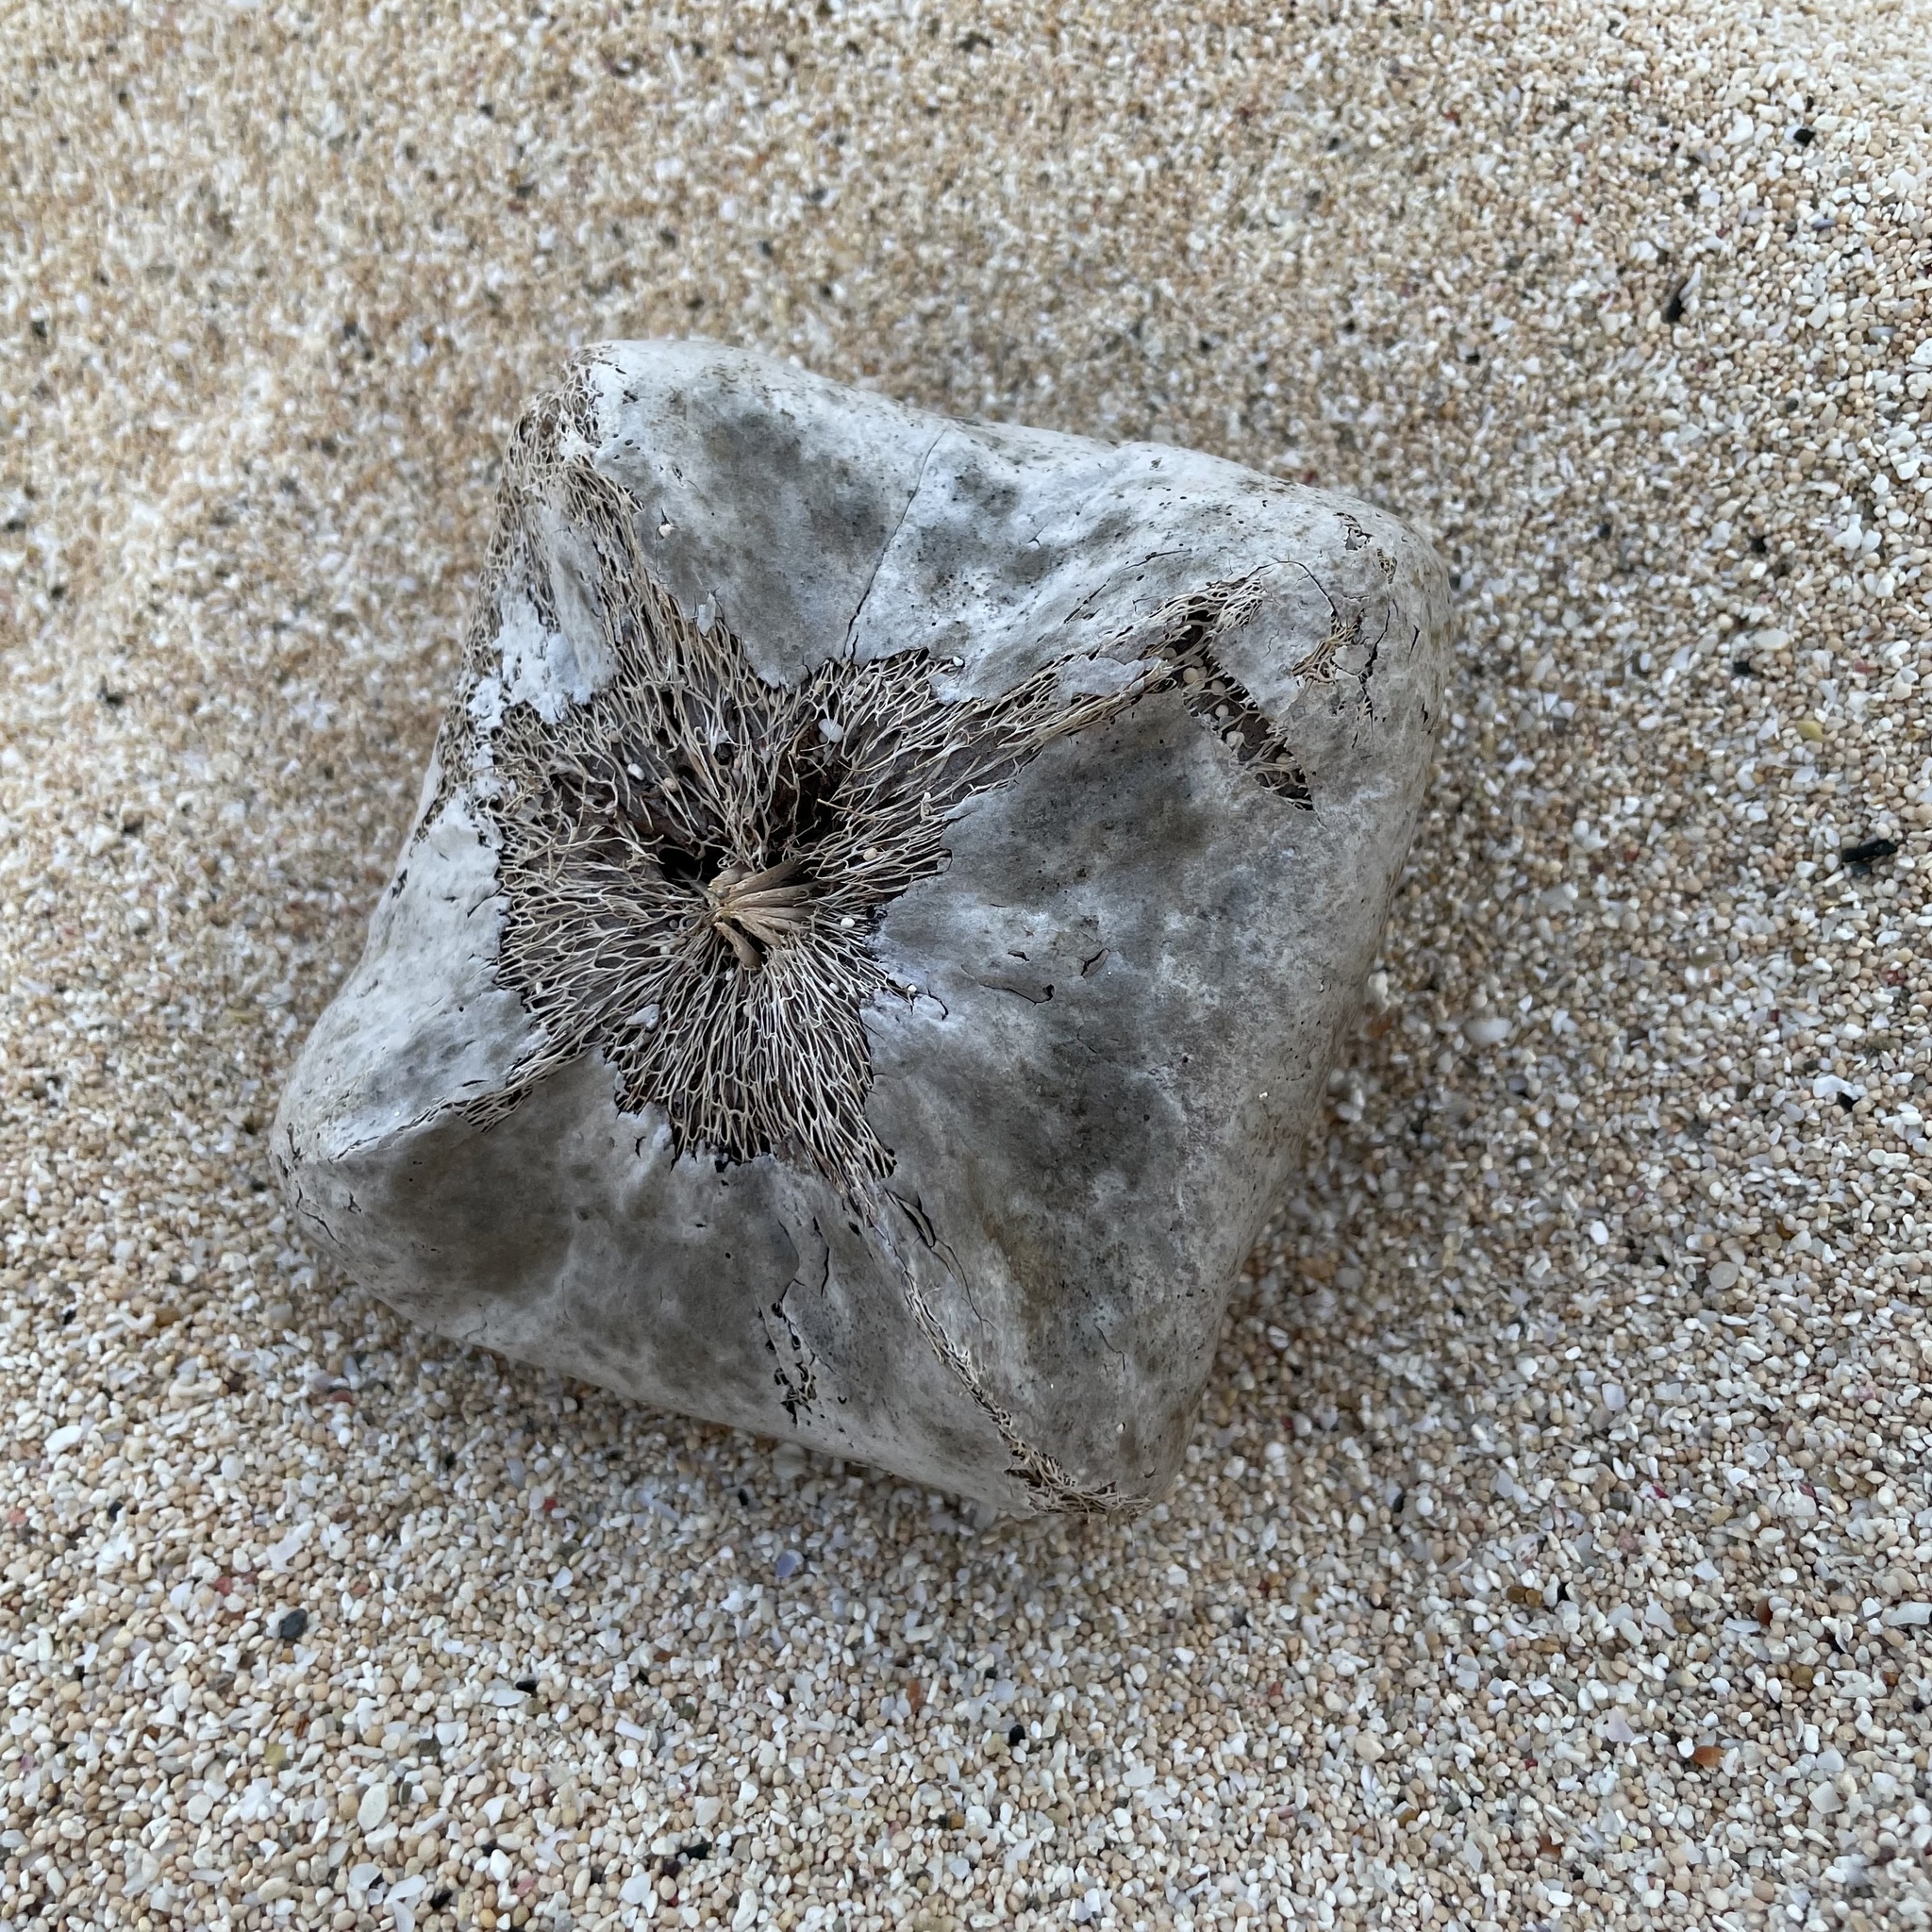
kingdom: Plantae
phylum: Tracheophyta
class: Magnoliopsida
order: Ericales
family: Lecythidaceae
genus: Barringtonia
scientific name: Barringtonia asiatica
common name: Mango-pine
